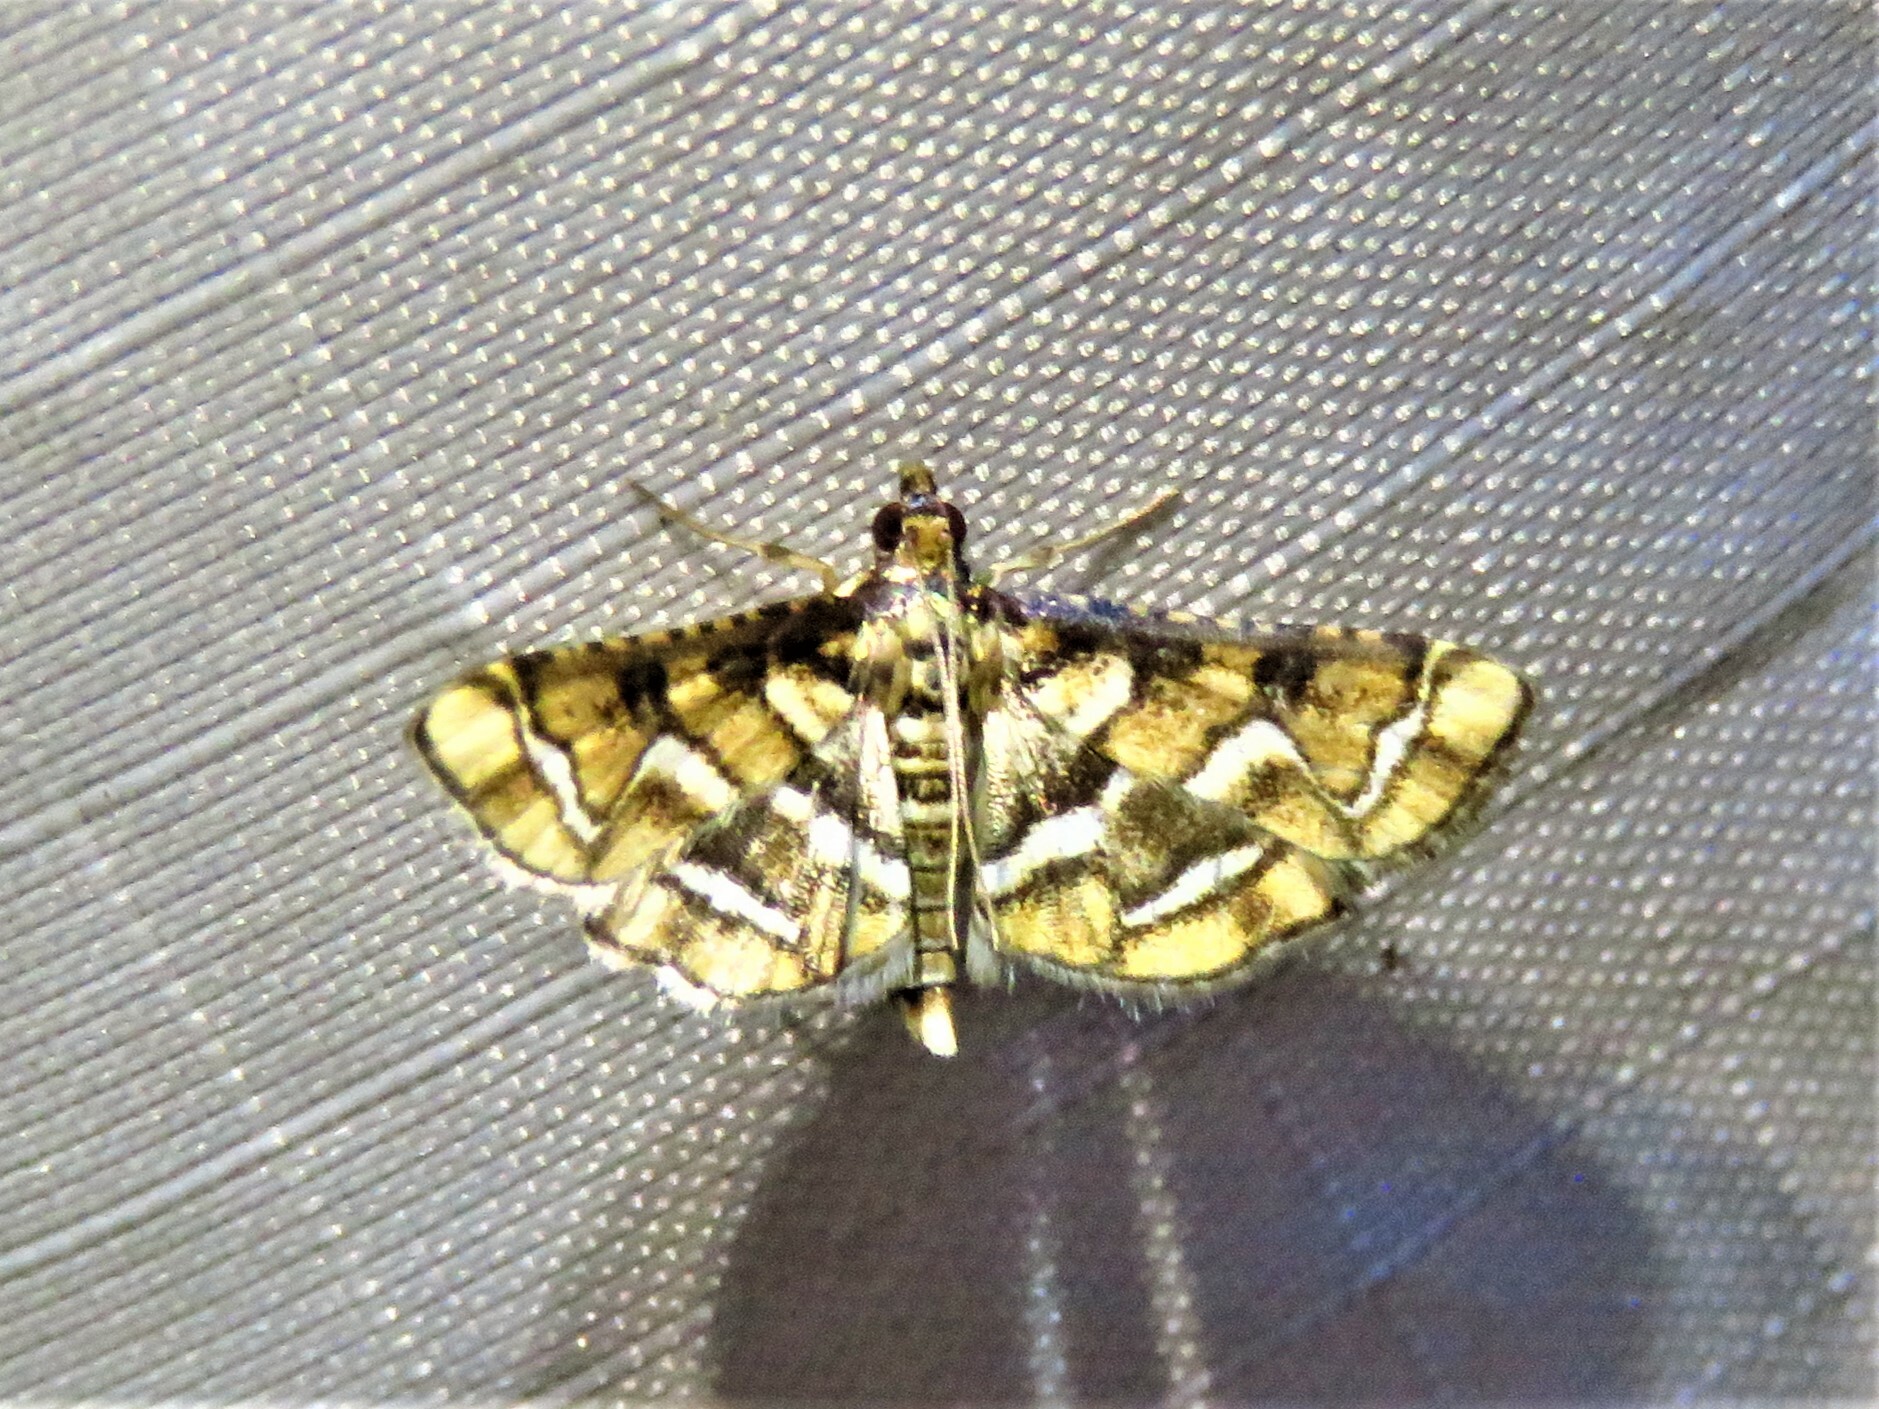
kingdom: Animalia
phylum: Arthropoda
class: Insecta
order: Lepidoptera
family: Crambidae
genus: Hileithia
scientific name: Hileithia magualis
